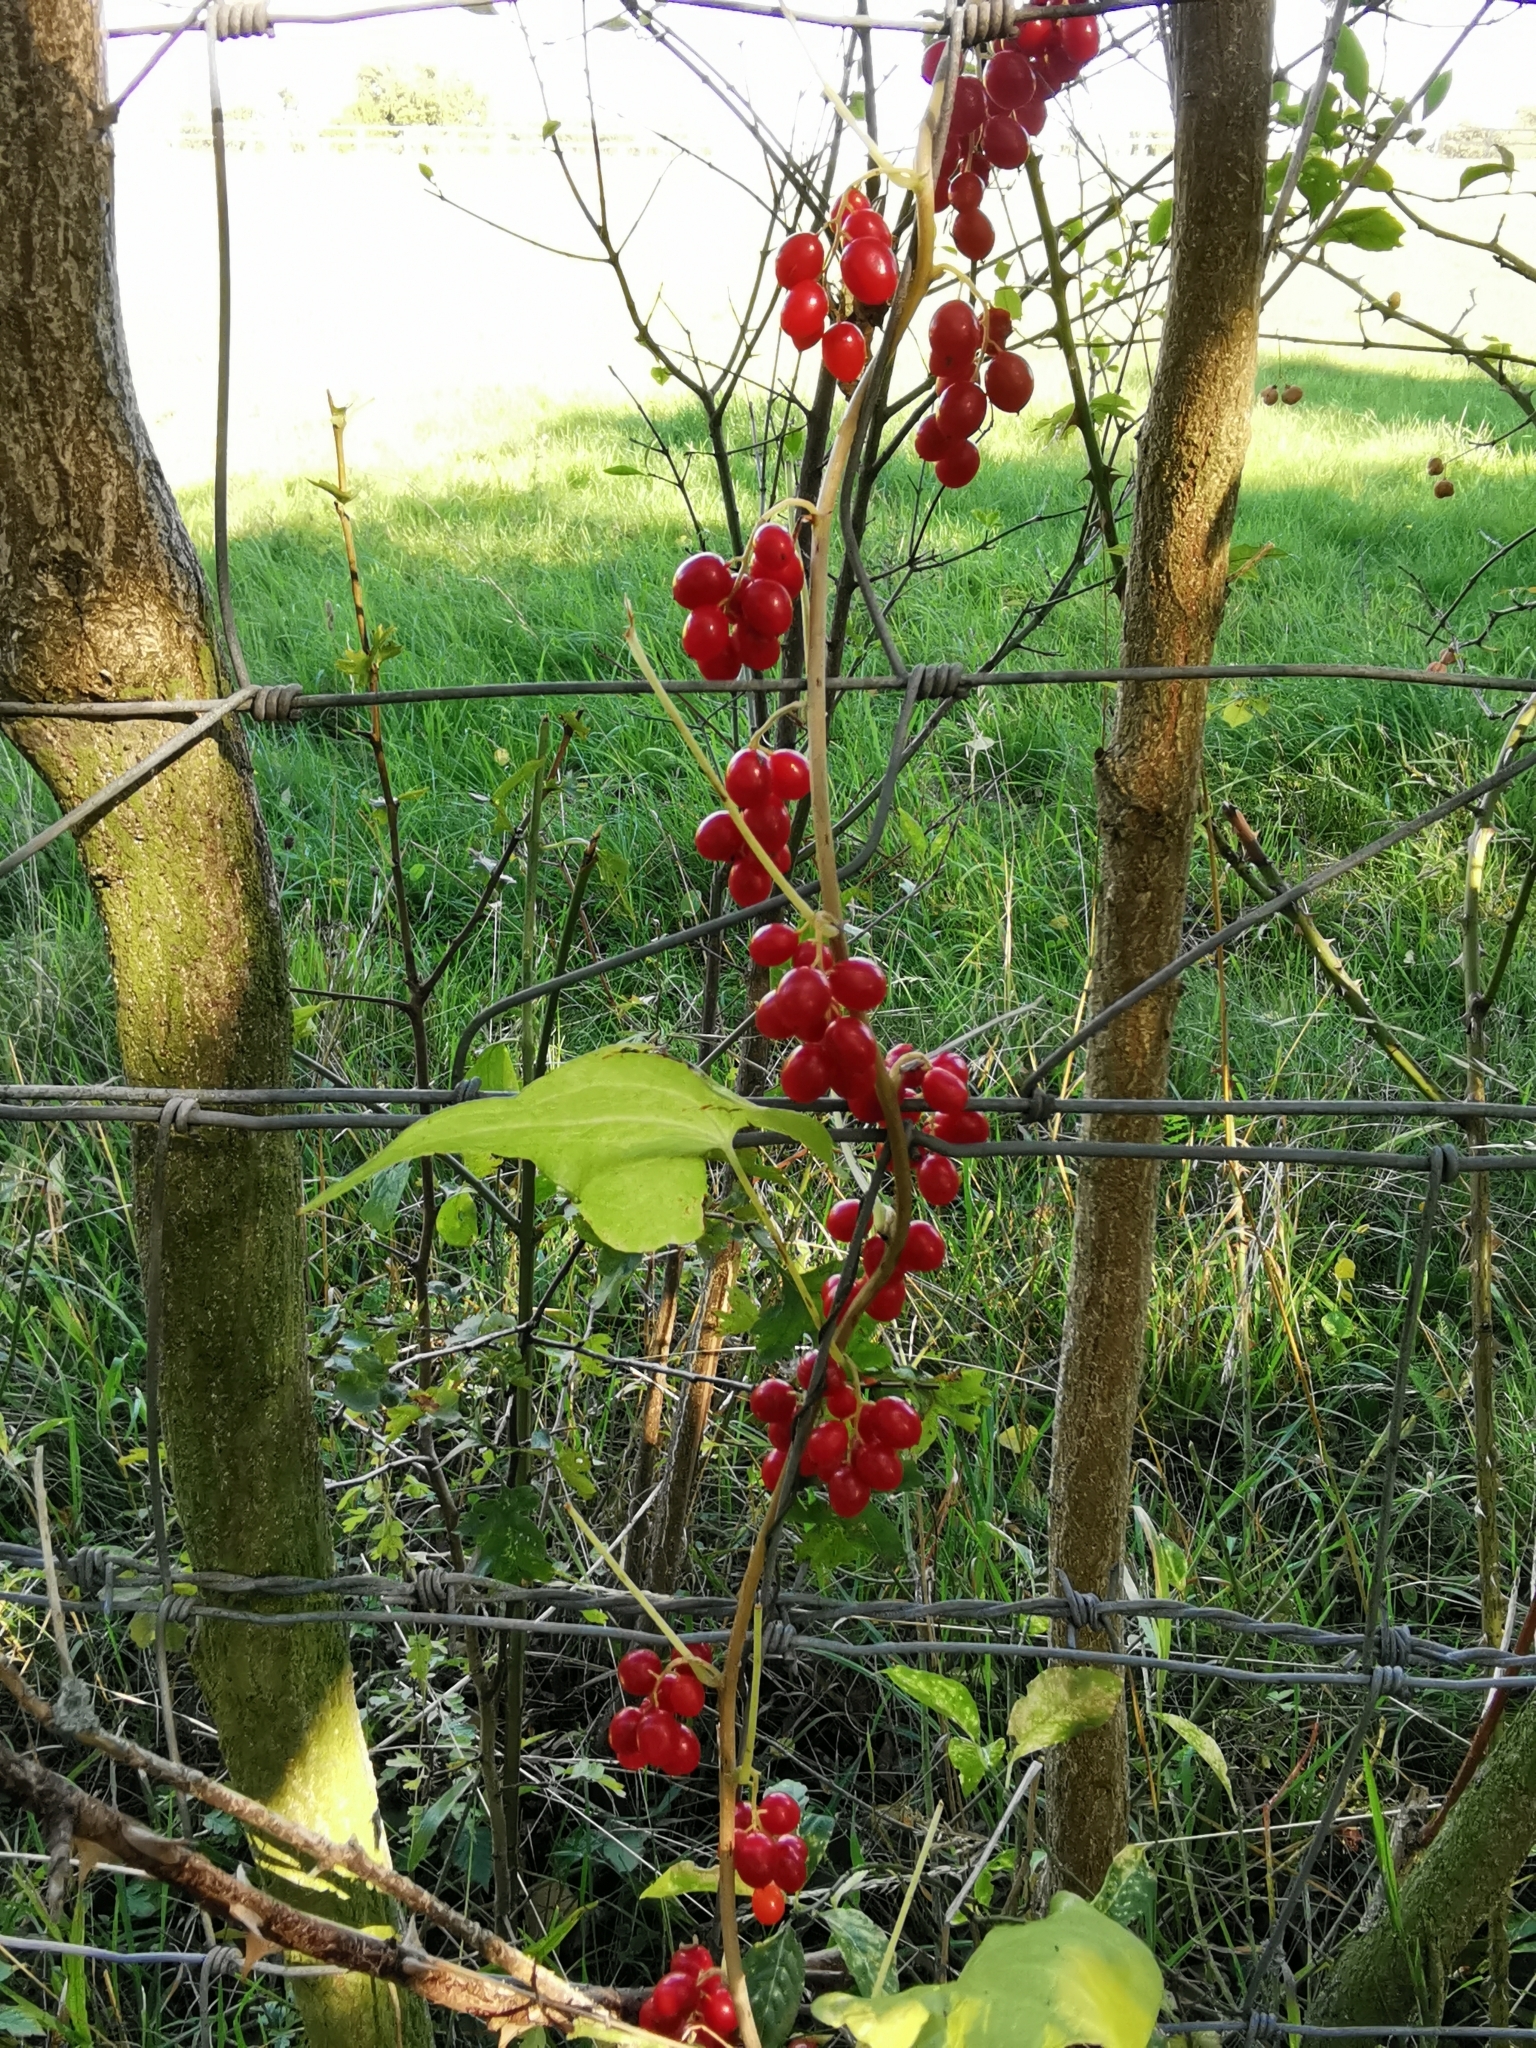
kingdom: Plantae
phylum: Tracheophyta
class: Liliopsida
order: Dioscoreales
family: Dioscoreaceae
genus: Dioscorea
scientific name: Dioscorea communis
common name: Black-bindweed
